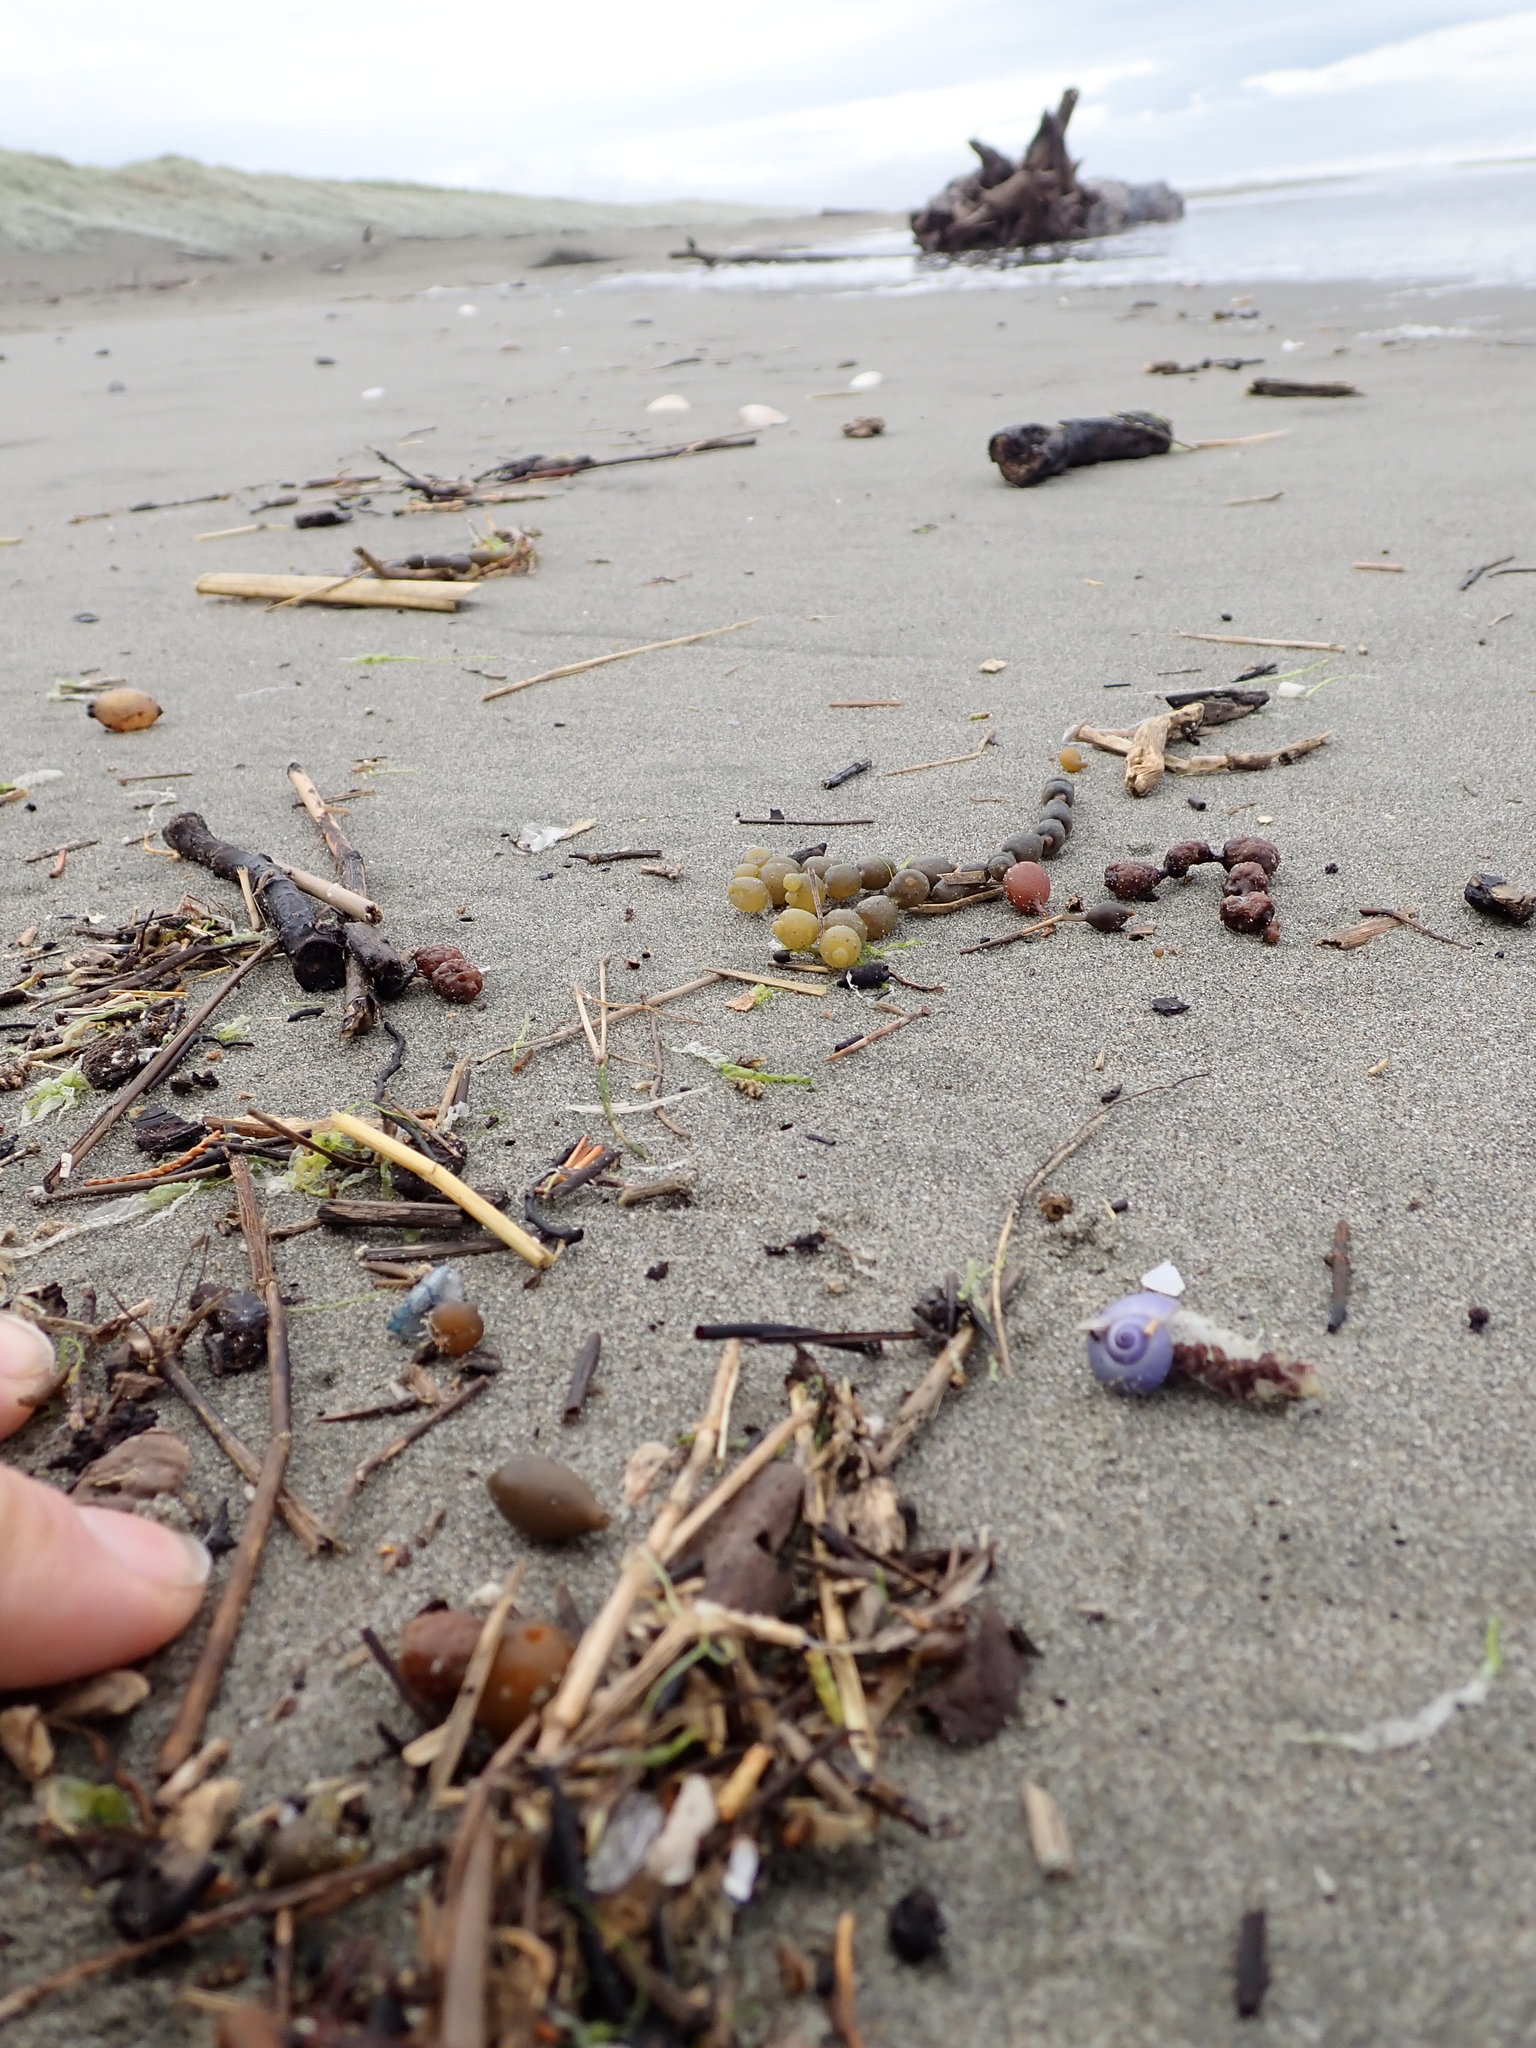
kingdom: Animalia
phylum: Mollusca
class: Gastropoda
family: Epitoniidae
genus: Janthina
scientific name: Janthina exigua
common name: Dwarf janthina
